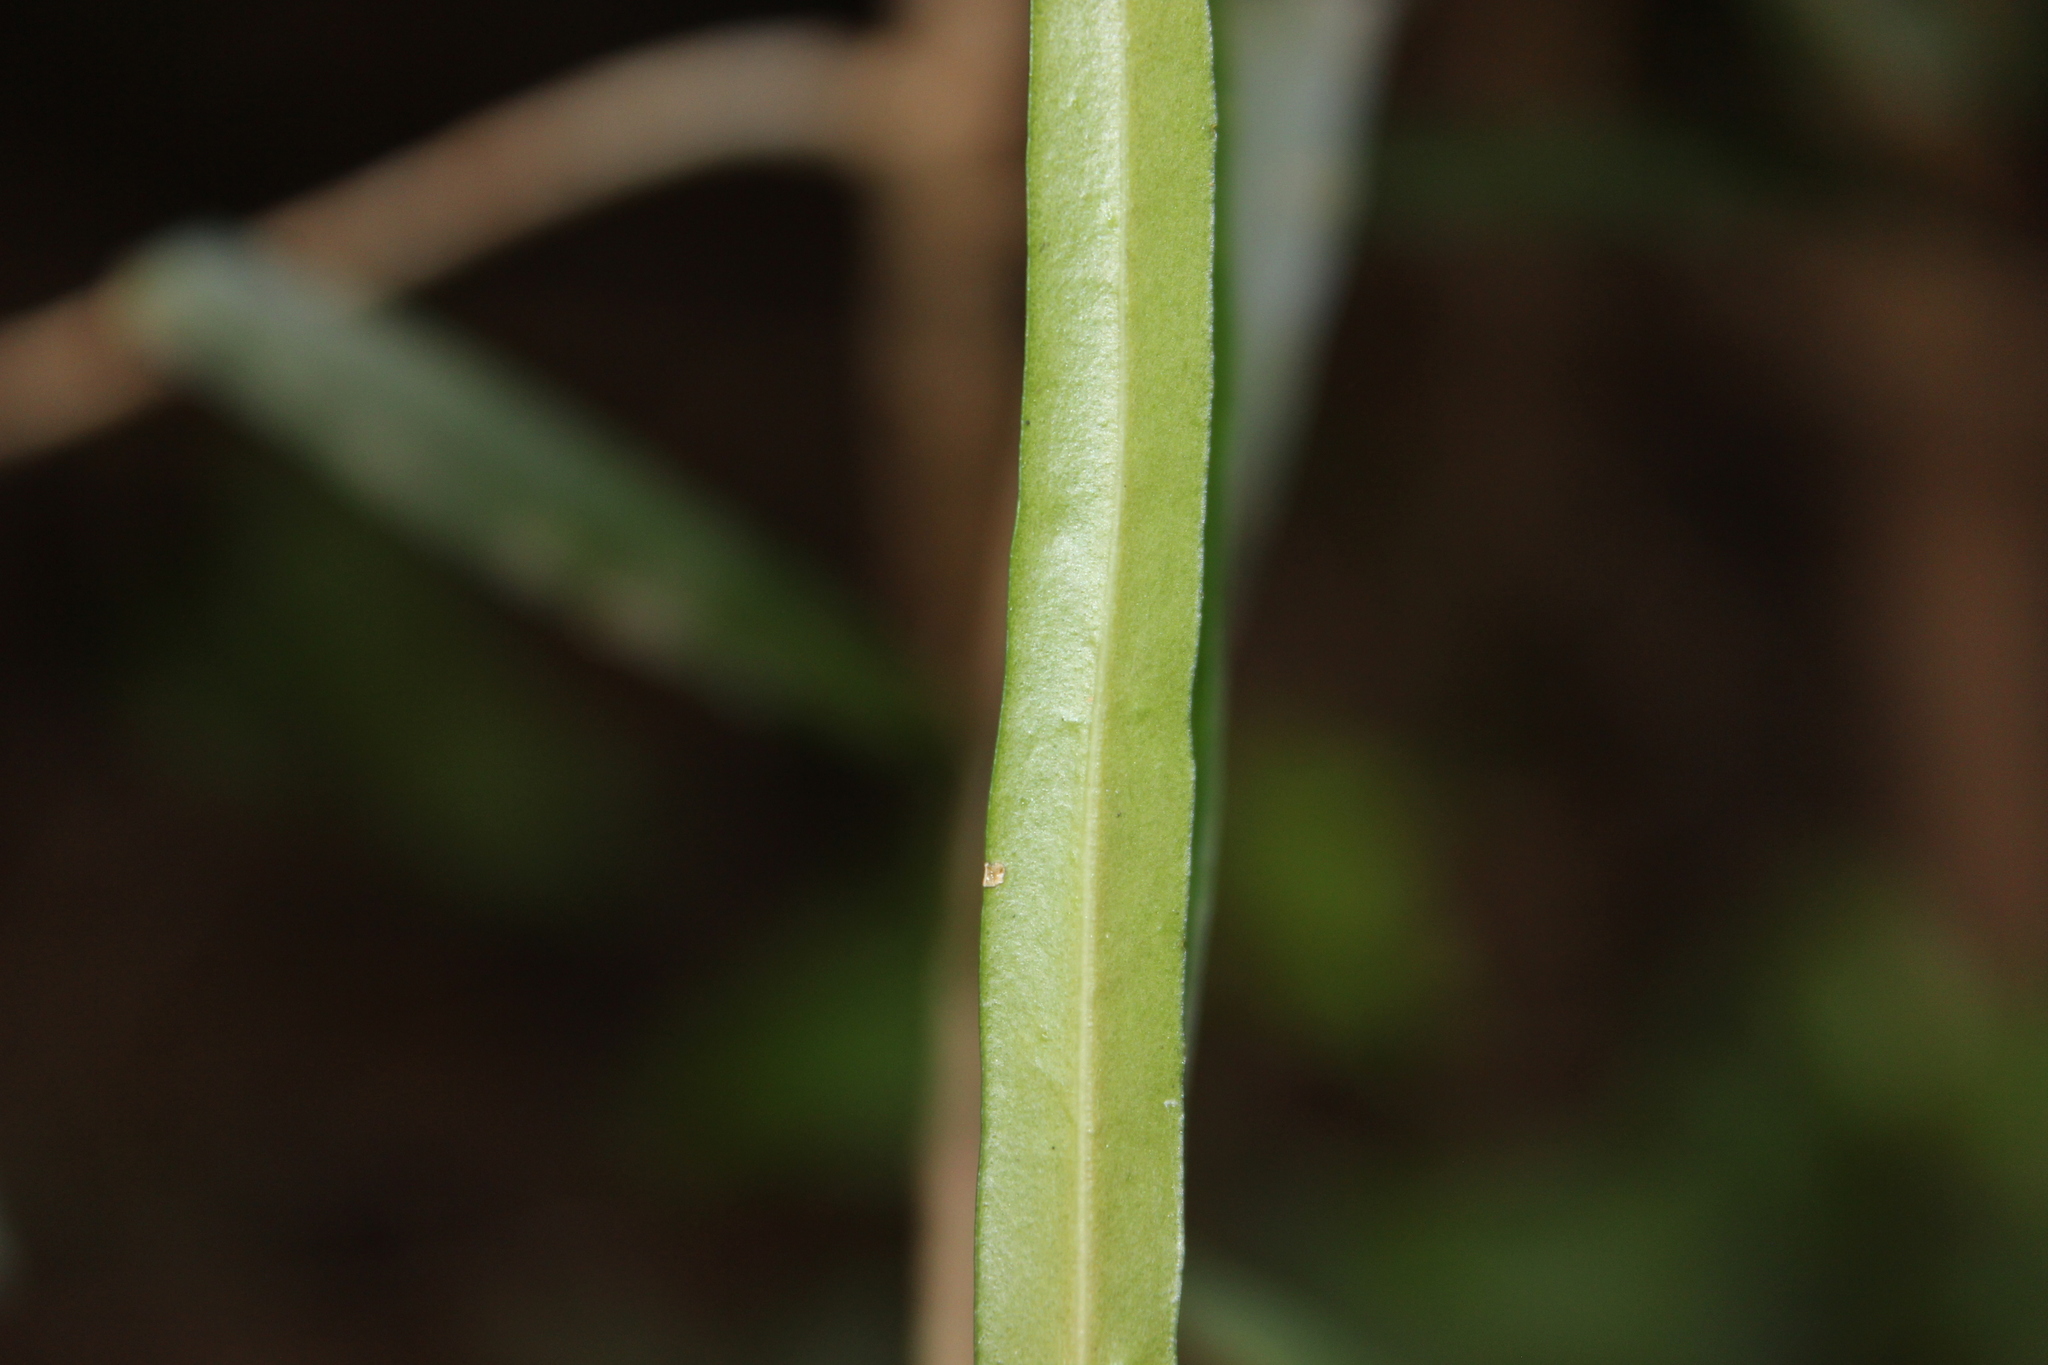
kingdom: Plantae
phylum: Tracheophyta
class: Magnoliopsida
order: Lamiales
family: Oleaceae
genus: Nestegis
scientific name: Nestegis lanceolata
